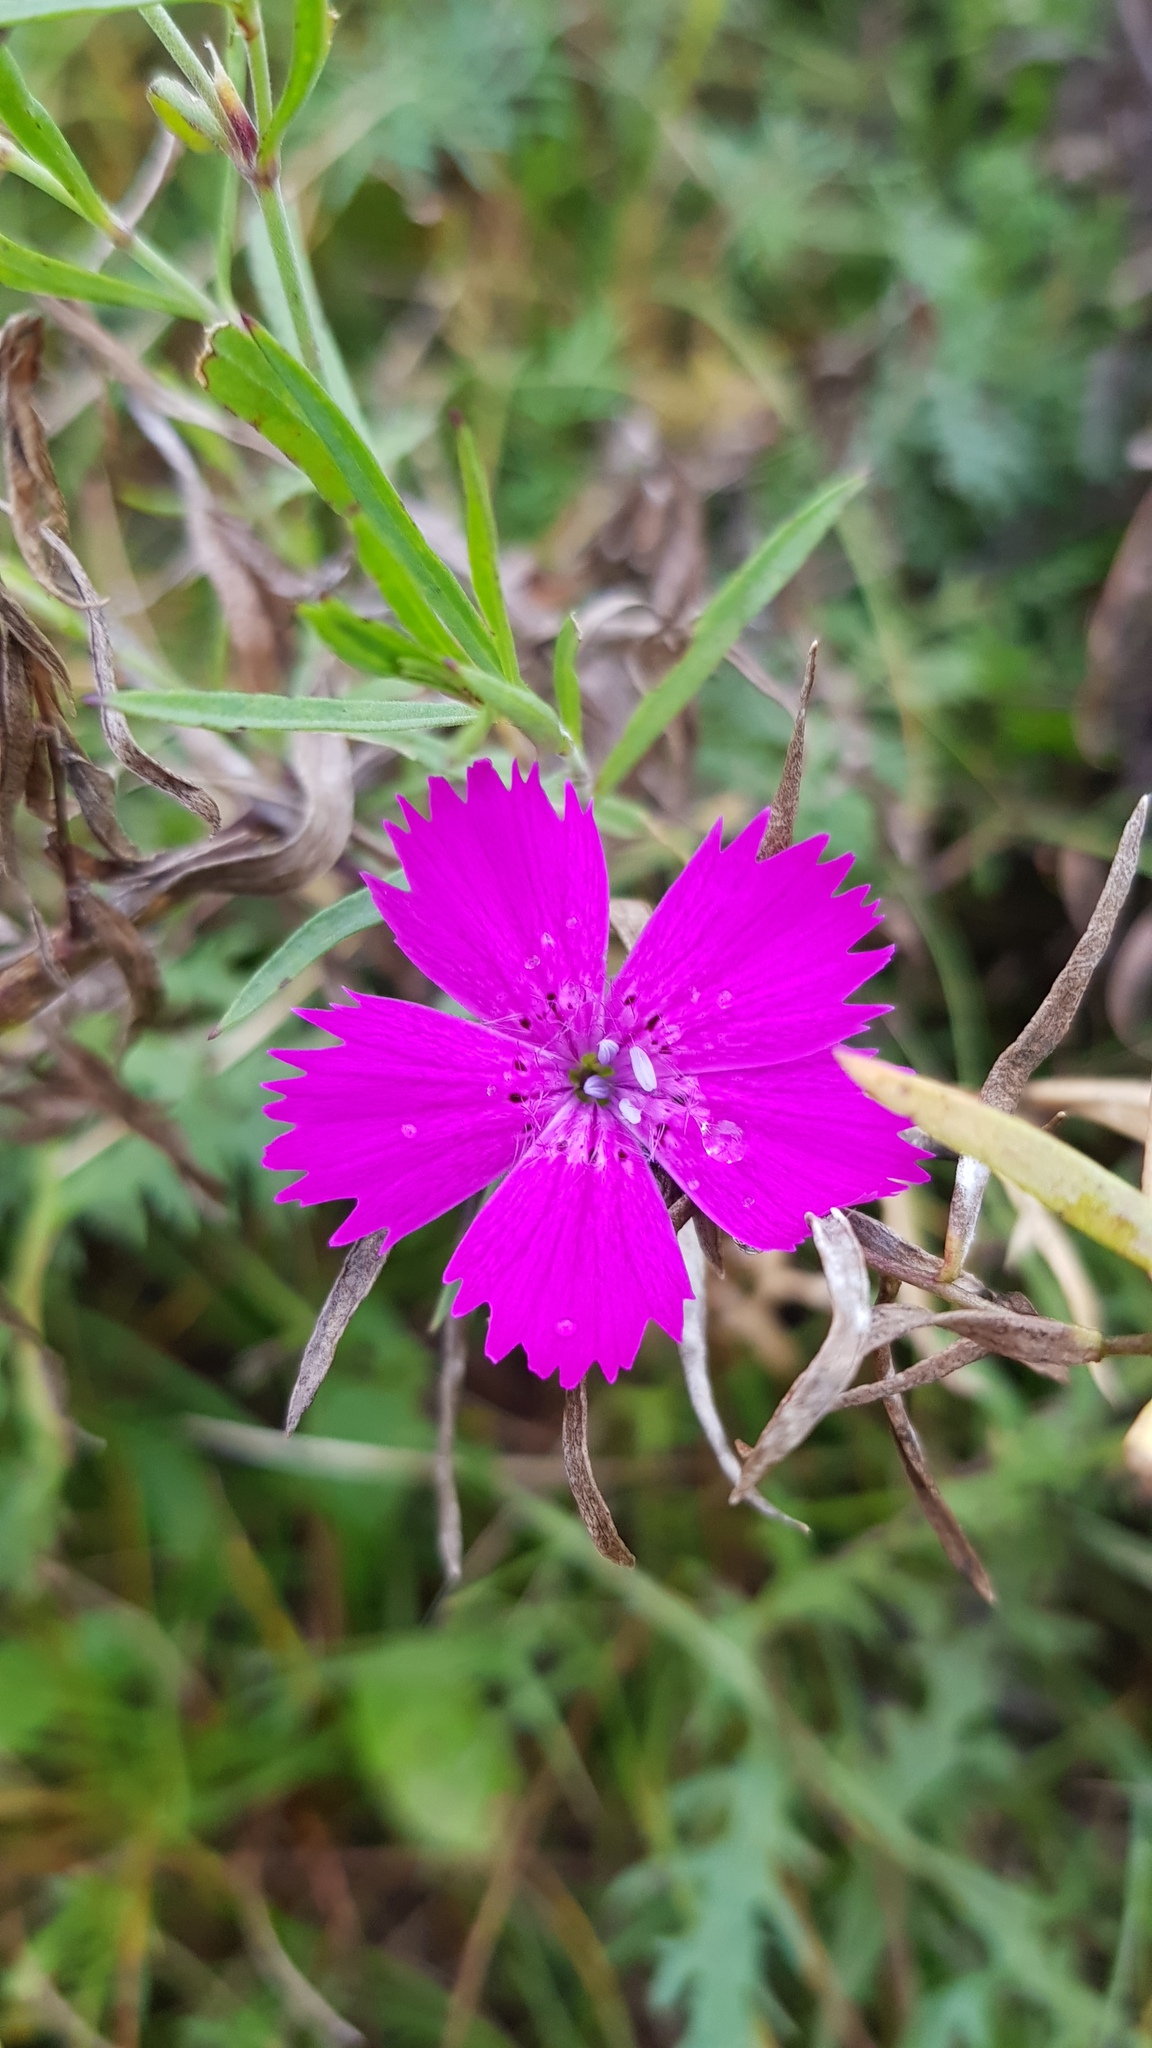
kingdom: Plantae
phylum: Tracheophyta
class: Magnoliopsida
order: Caryophyllales
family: Caryophyllaceae
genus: Dianthus
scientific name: Dianthus chinensis
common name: Rainbow pink
